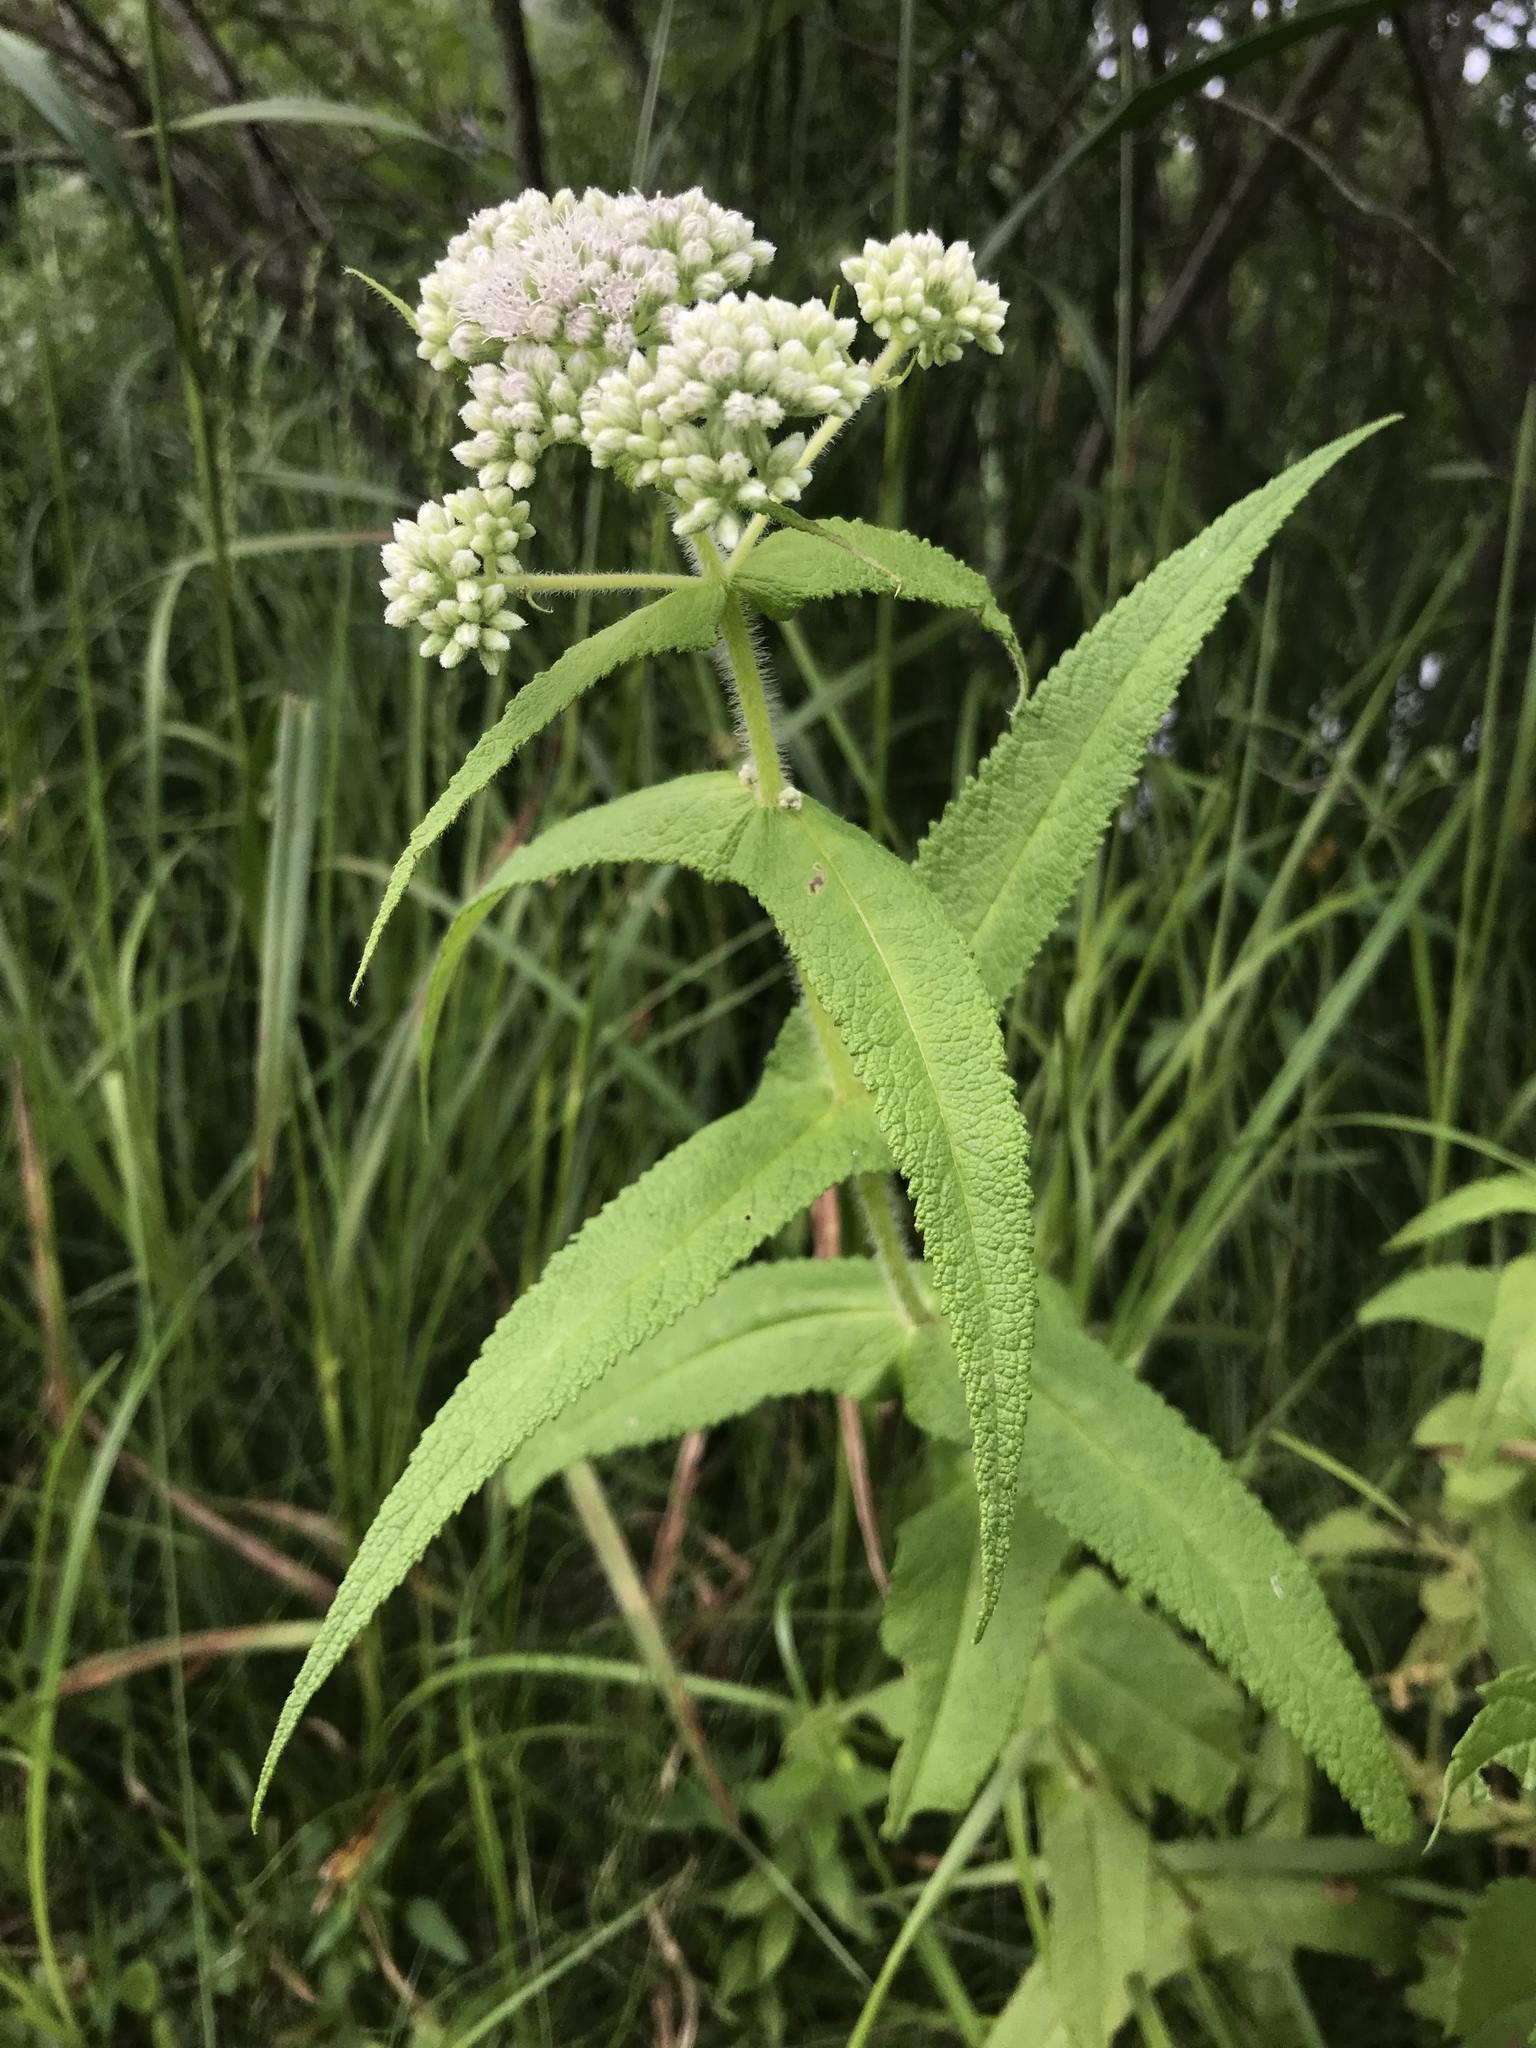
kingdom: Plantae
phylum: Tracheophyta
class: Magnoliopsida
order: Asterales
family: Asteraceae
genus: Eupatorium
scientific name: Eupatorium perfoliatum
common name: Boneset
